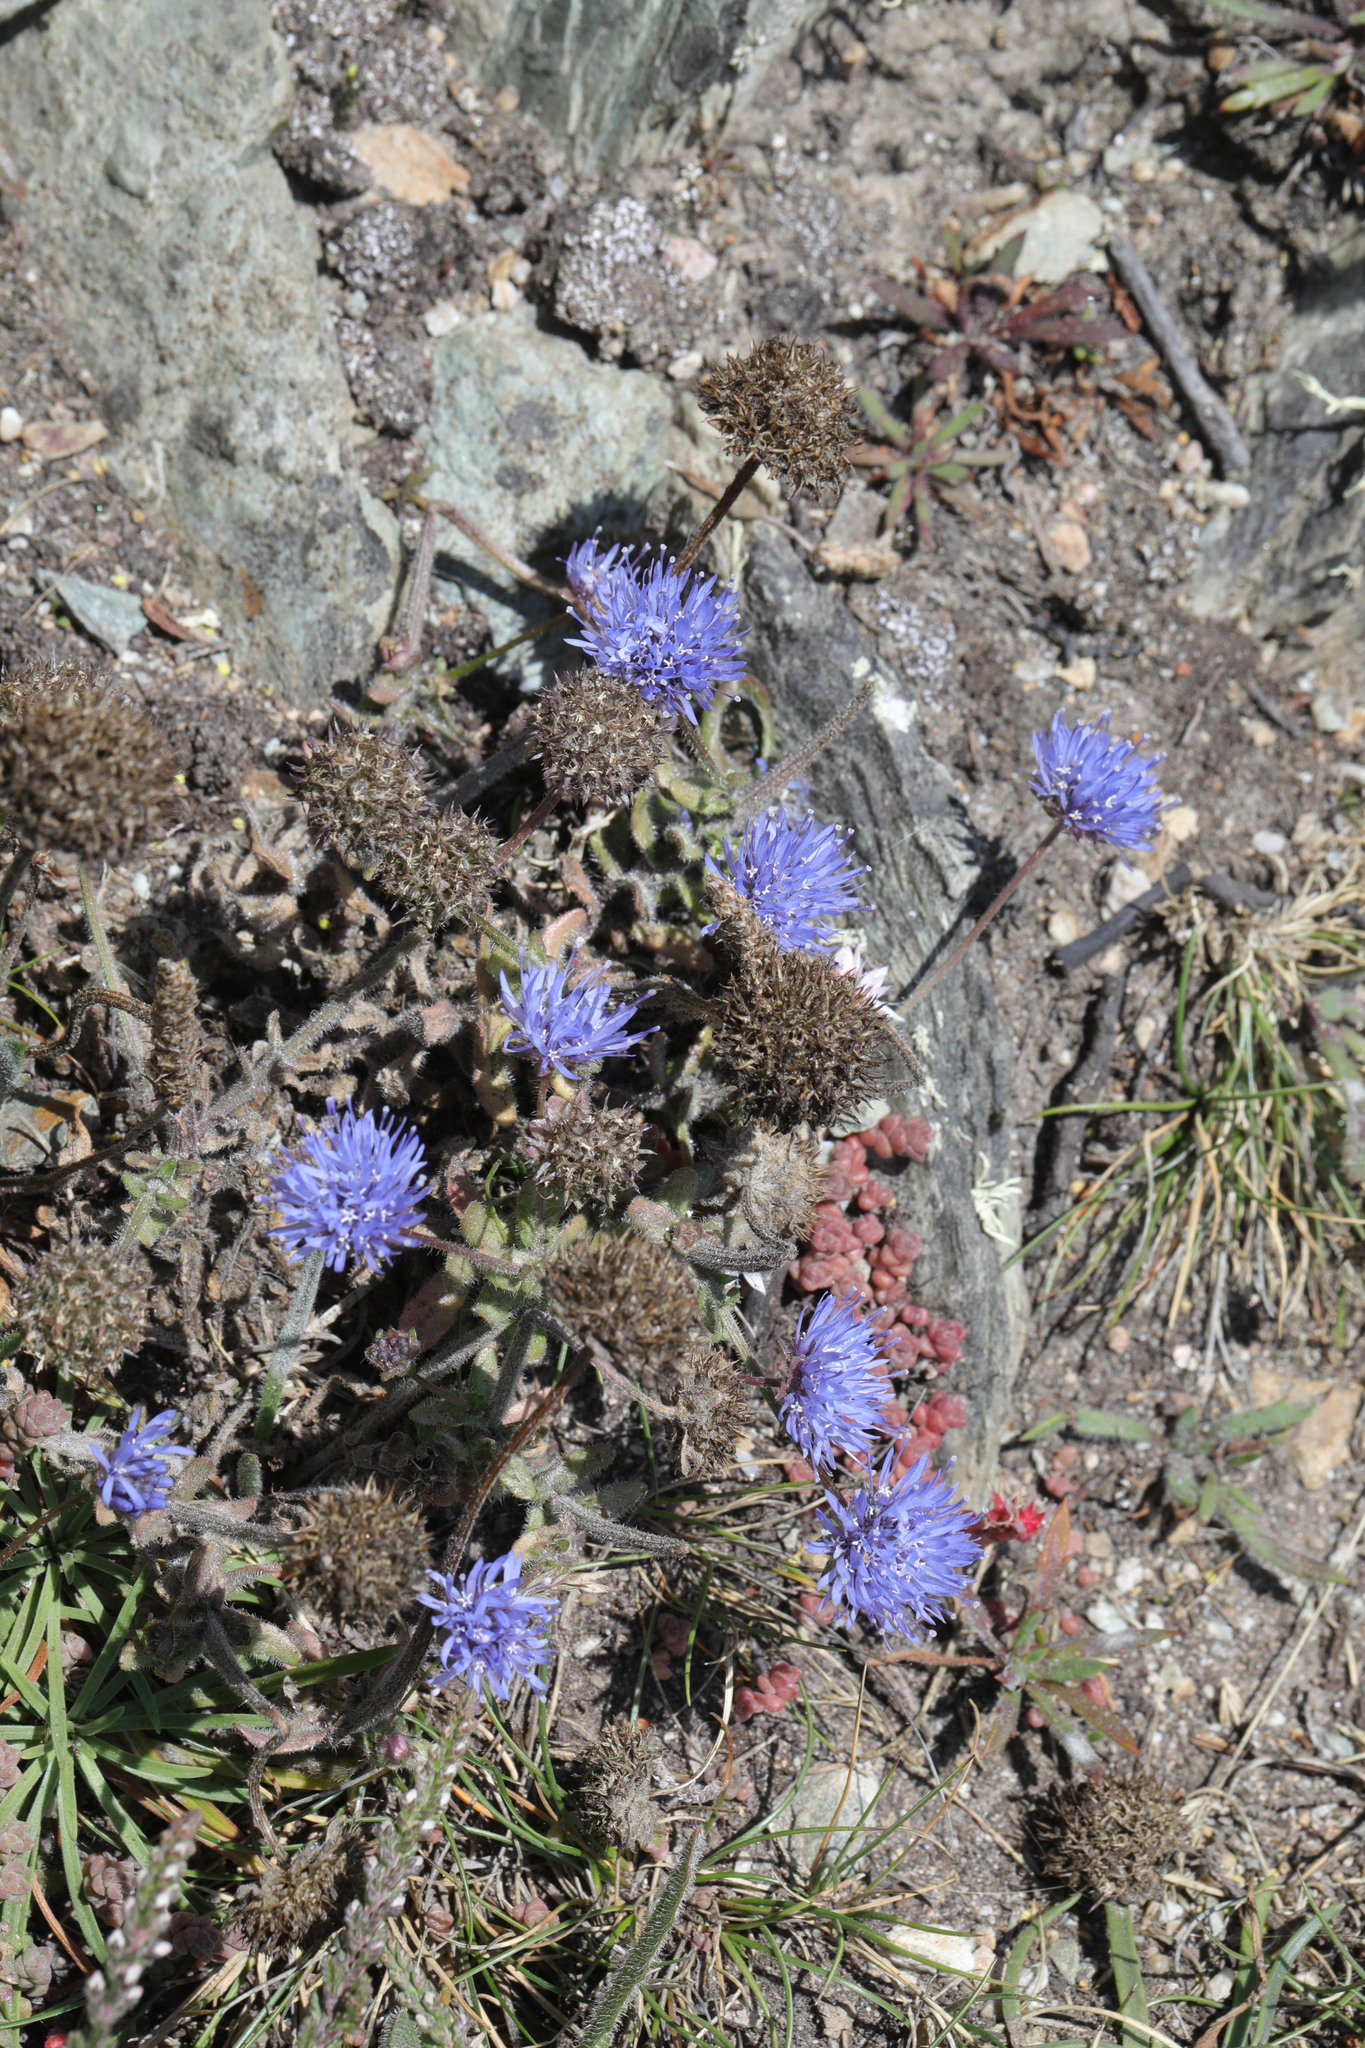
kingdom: Plantae
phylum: Tracheophyta
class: Magnoliopsida
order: Asterales
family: Campanulaceae
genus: Jasione
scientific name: Jasione montana
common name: Sheep's-bit
